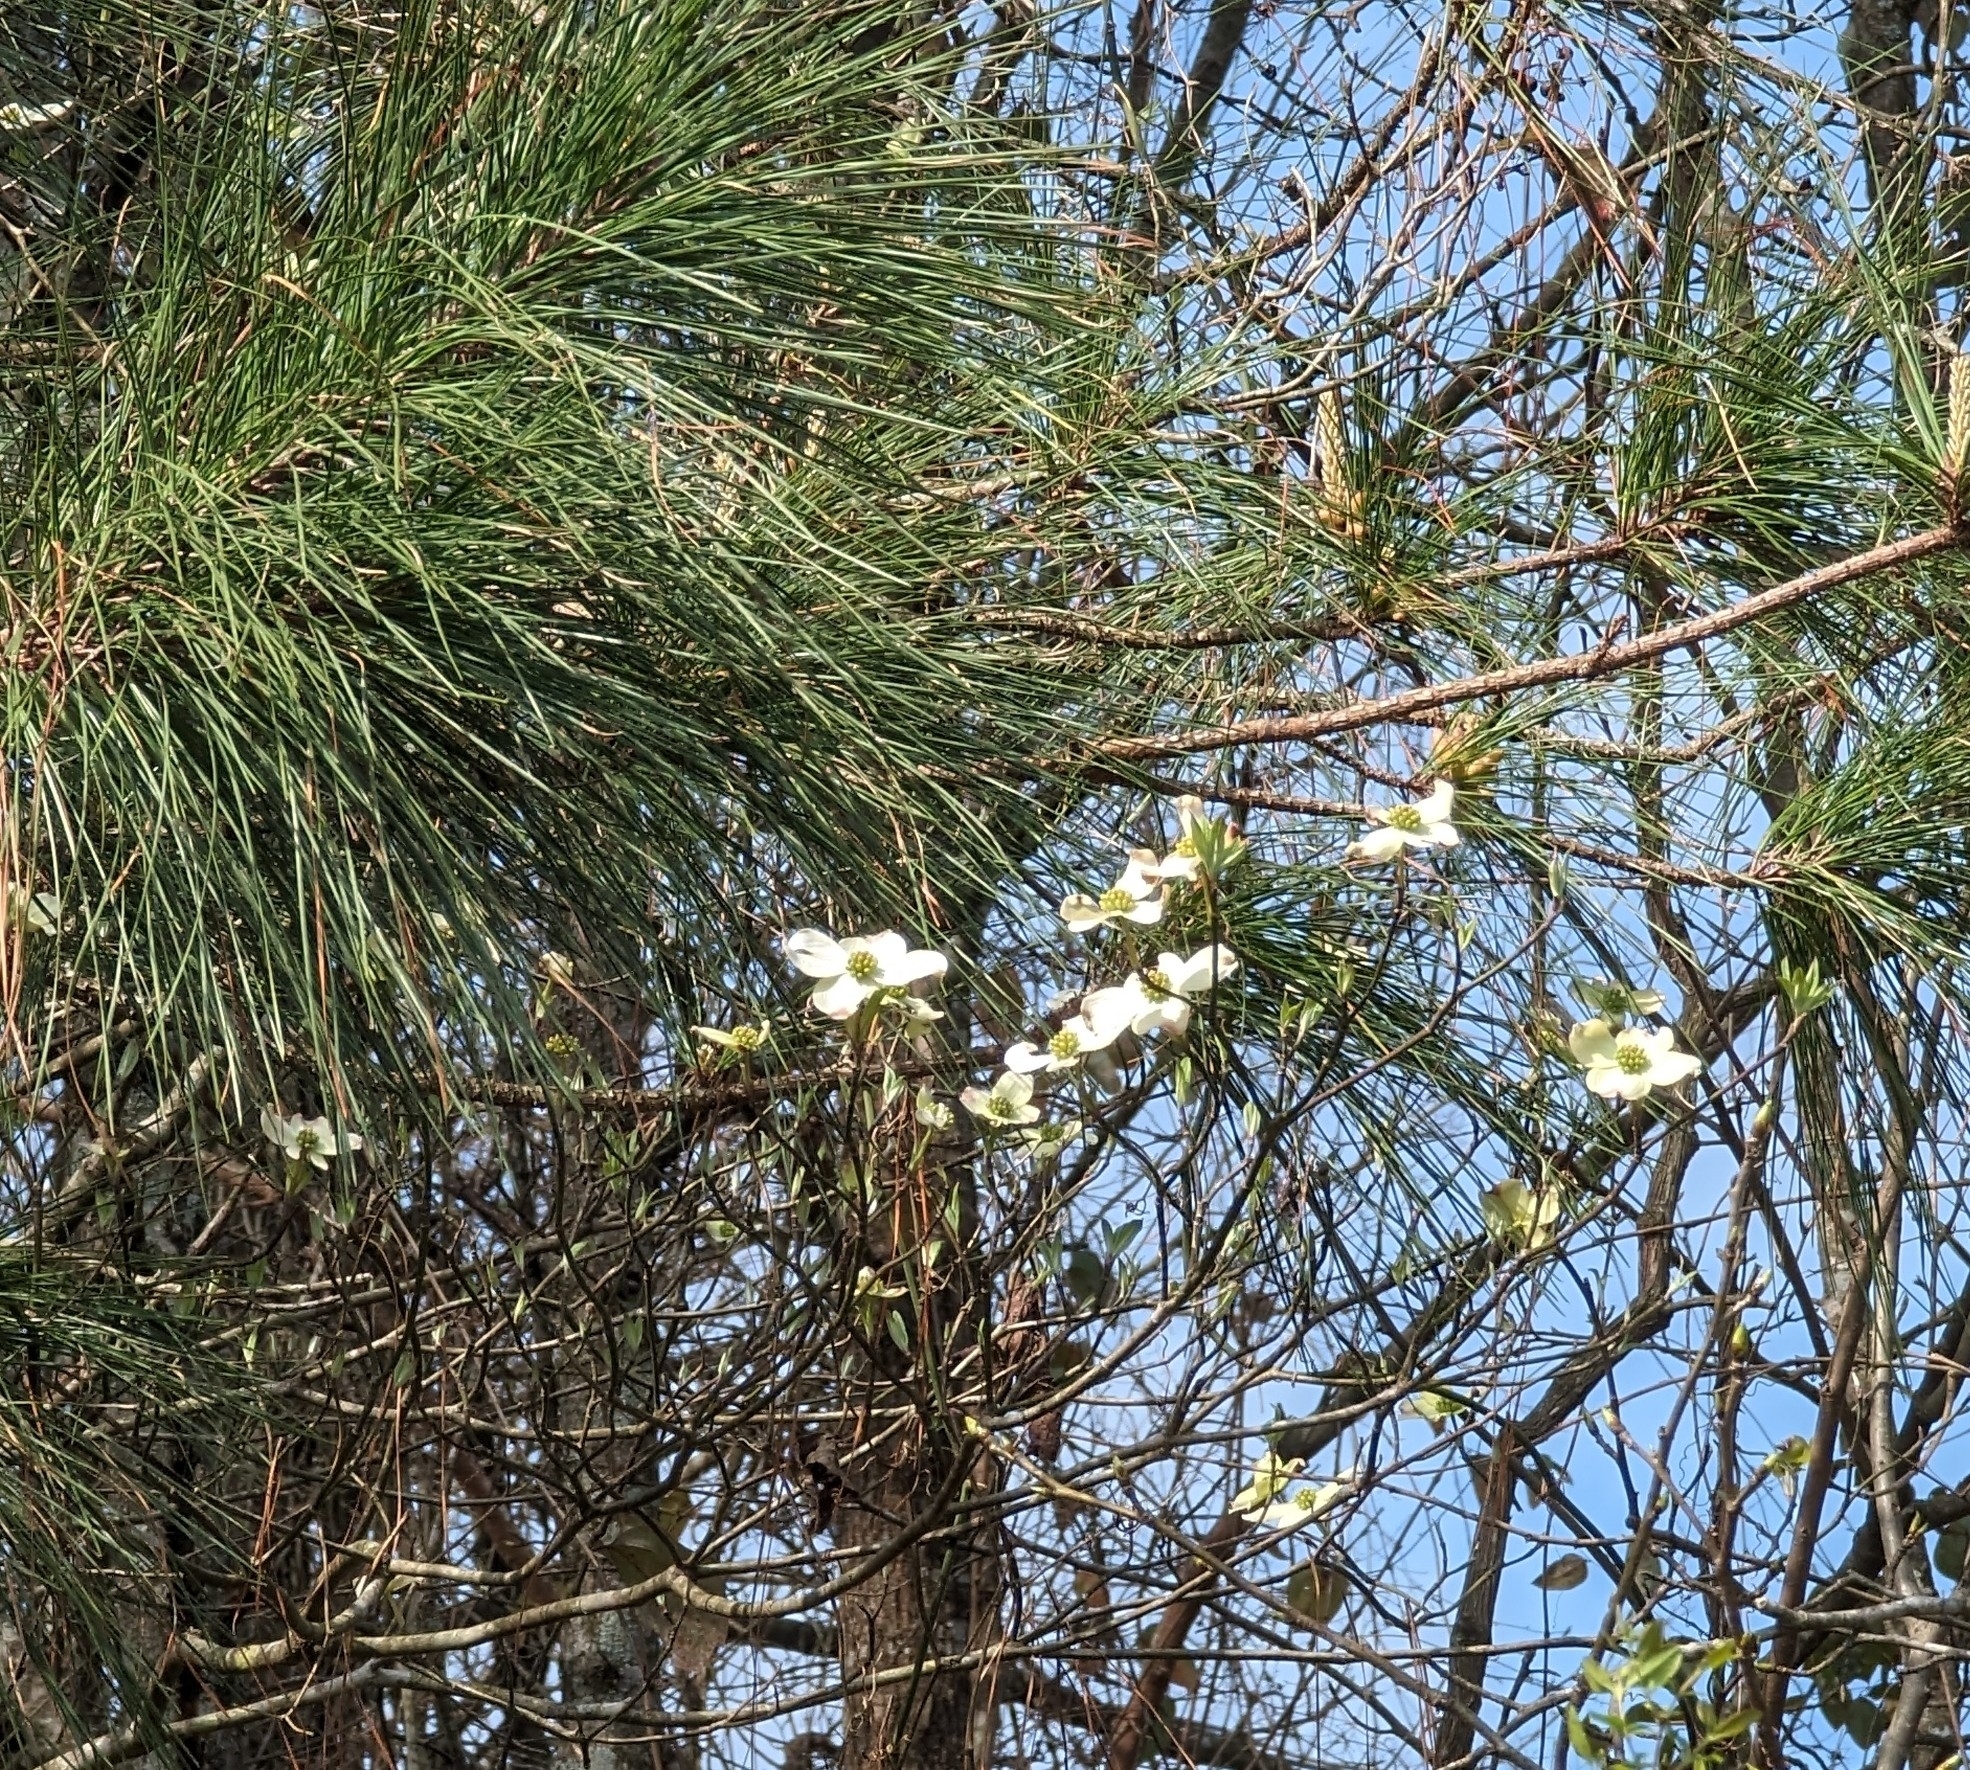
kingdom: Plantae
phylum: Tracheophyta
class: Magnoliopsida
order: Cornales
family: Cornaceae
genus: Cornus
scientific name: Cornus florida
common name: Flowering dogwood
